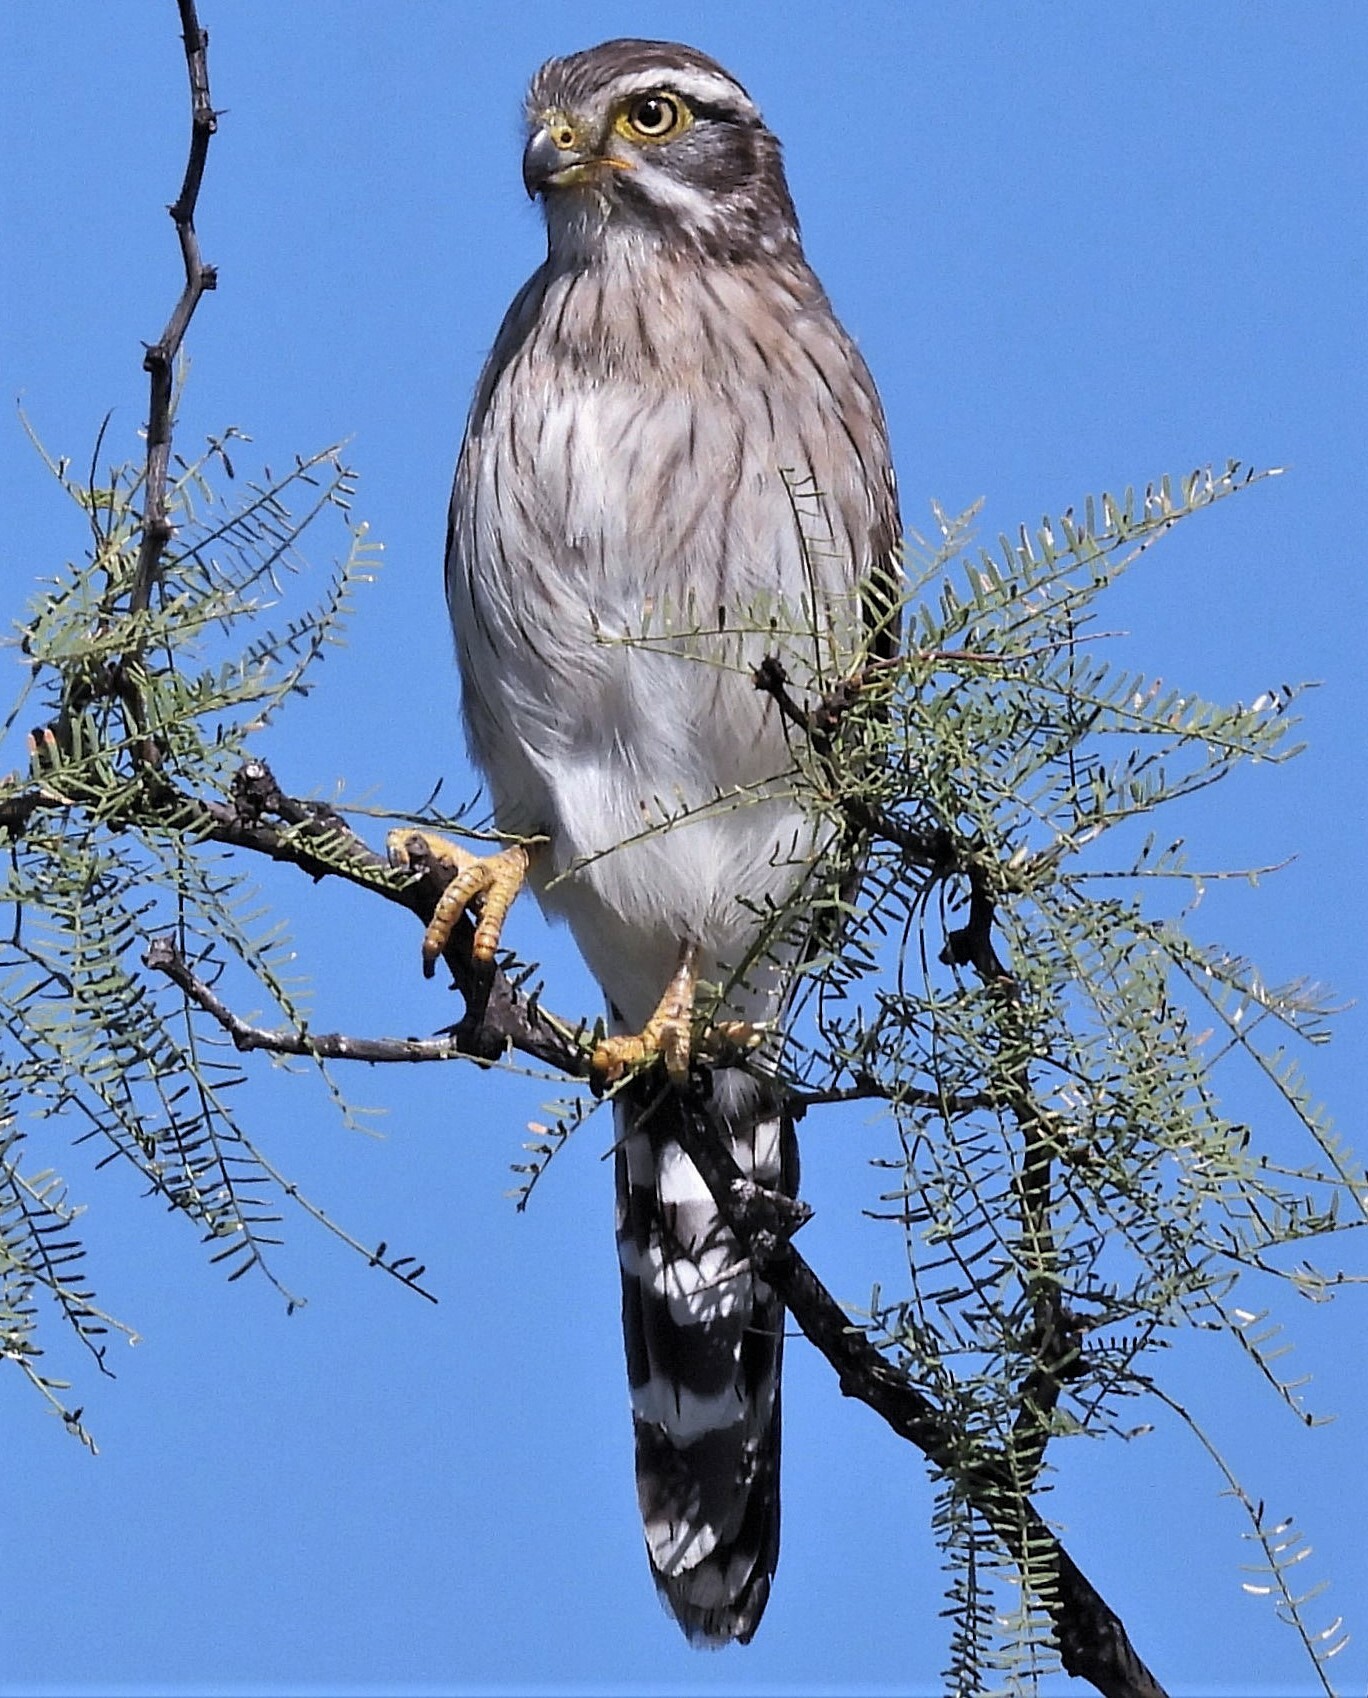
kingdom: Animalia
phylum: Chordata
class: Aves
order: Falconiformes
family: Falconidae
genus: Spiziapteryx
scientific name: Spiziapteryx circumcincta
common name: Spot-winged falconet
